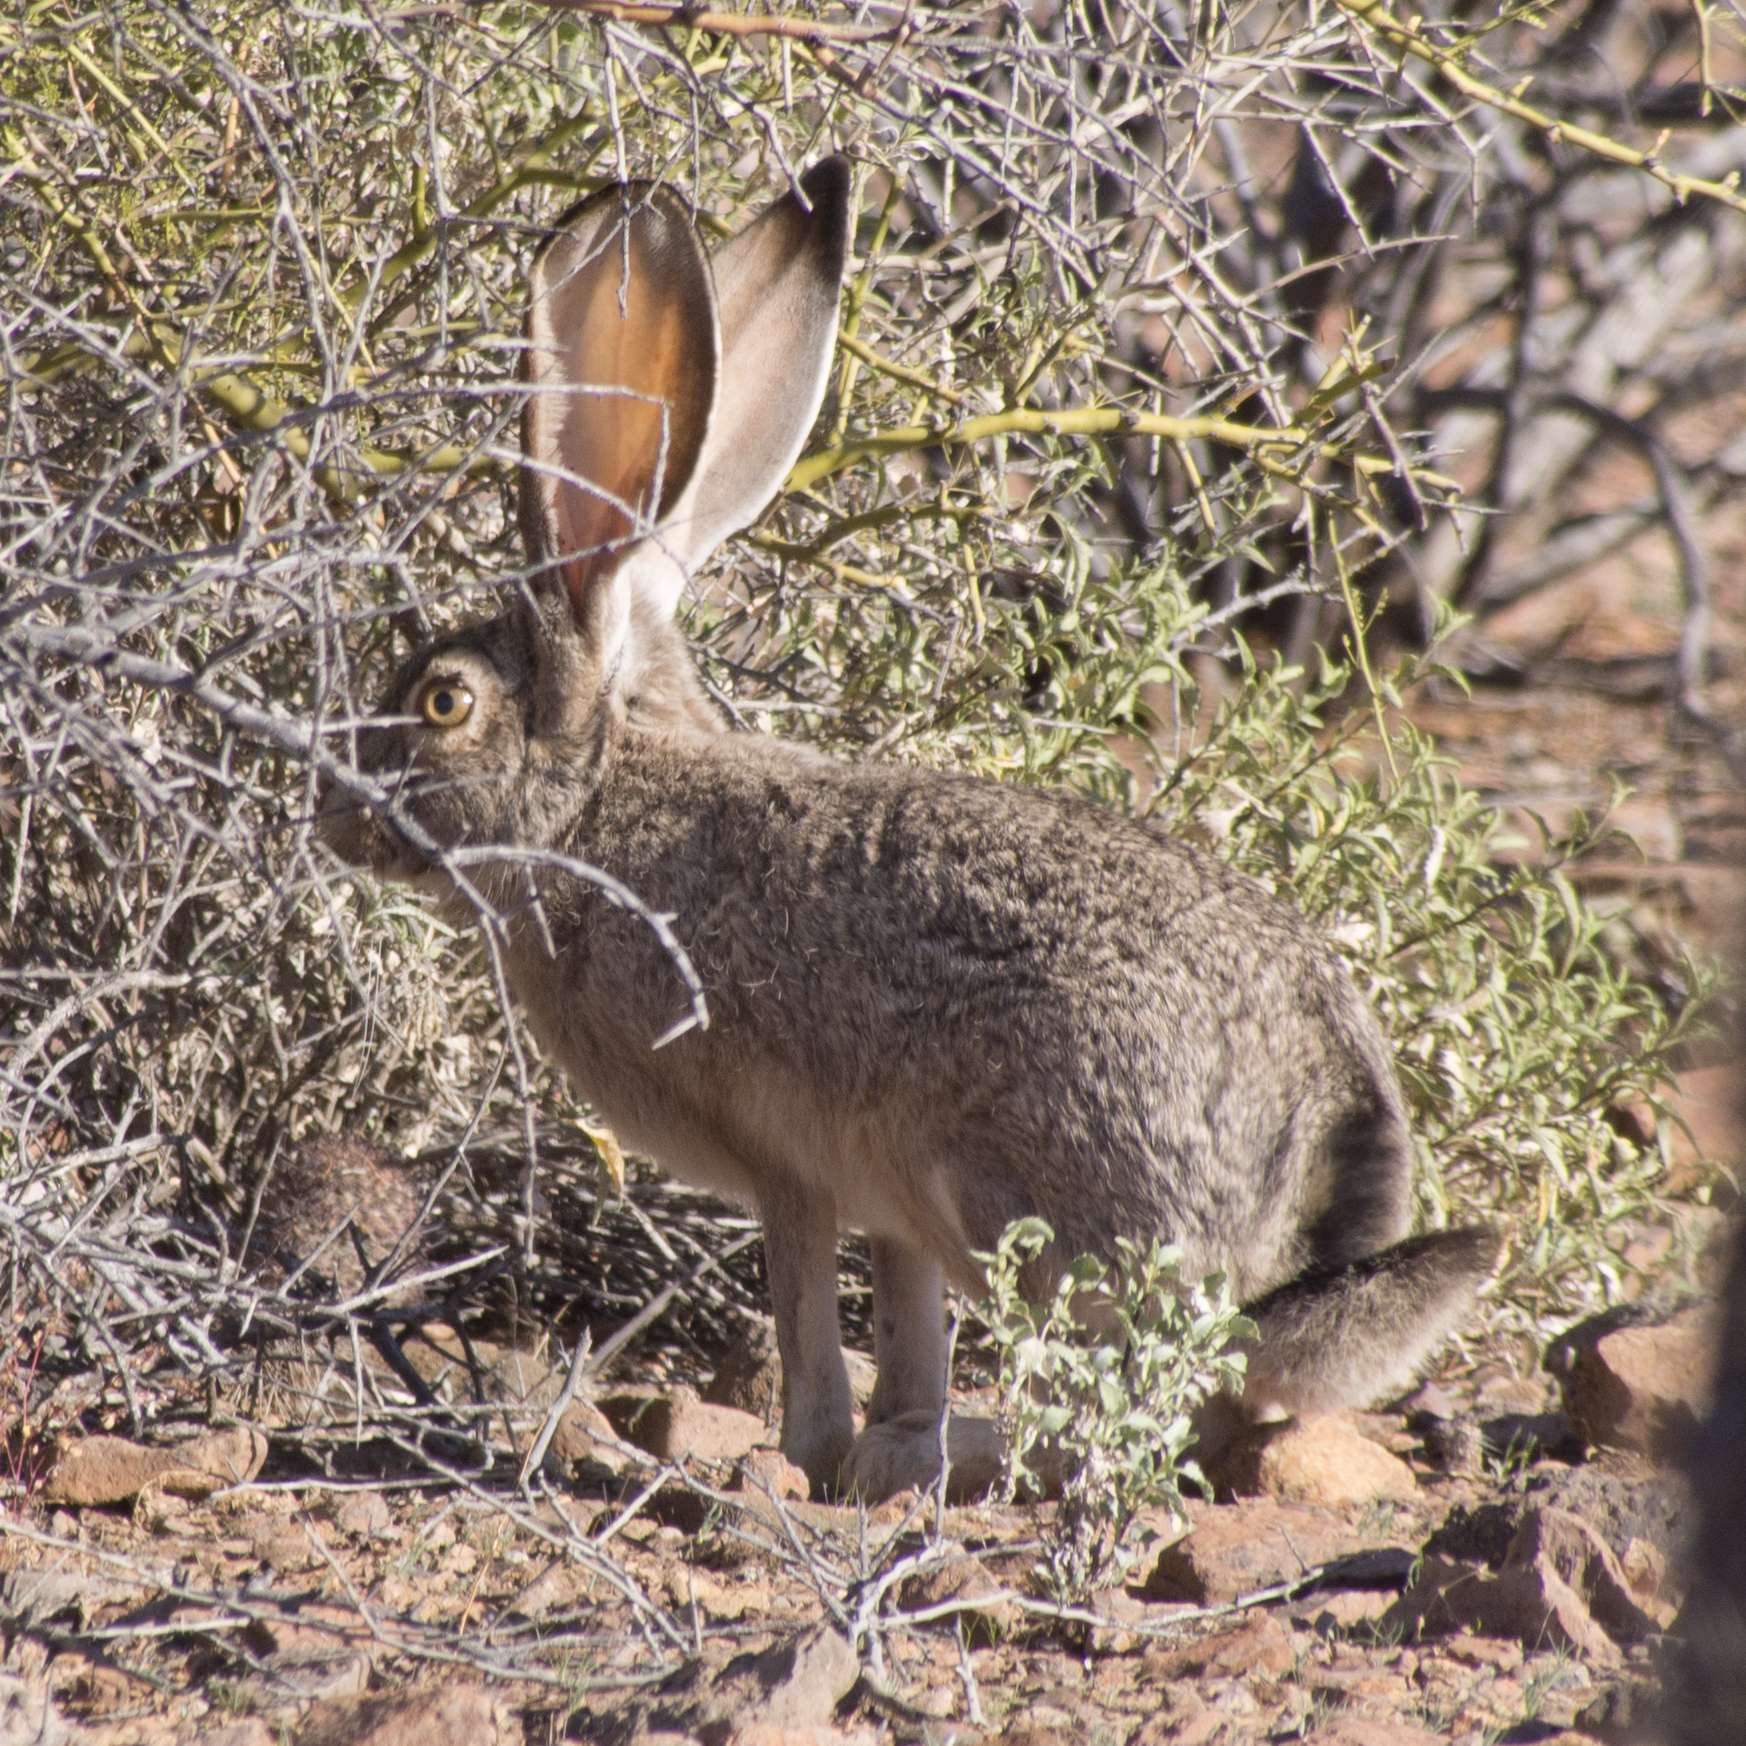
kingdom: Animalia
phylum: Chordata
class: Mammalia
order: Lagomorpha
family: Leporidae
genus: Lepus
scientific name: Lepus californicus
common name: Black-tailed jackrabbit
